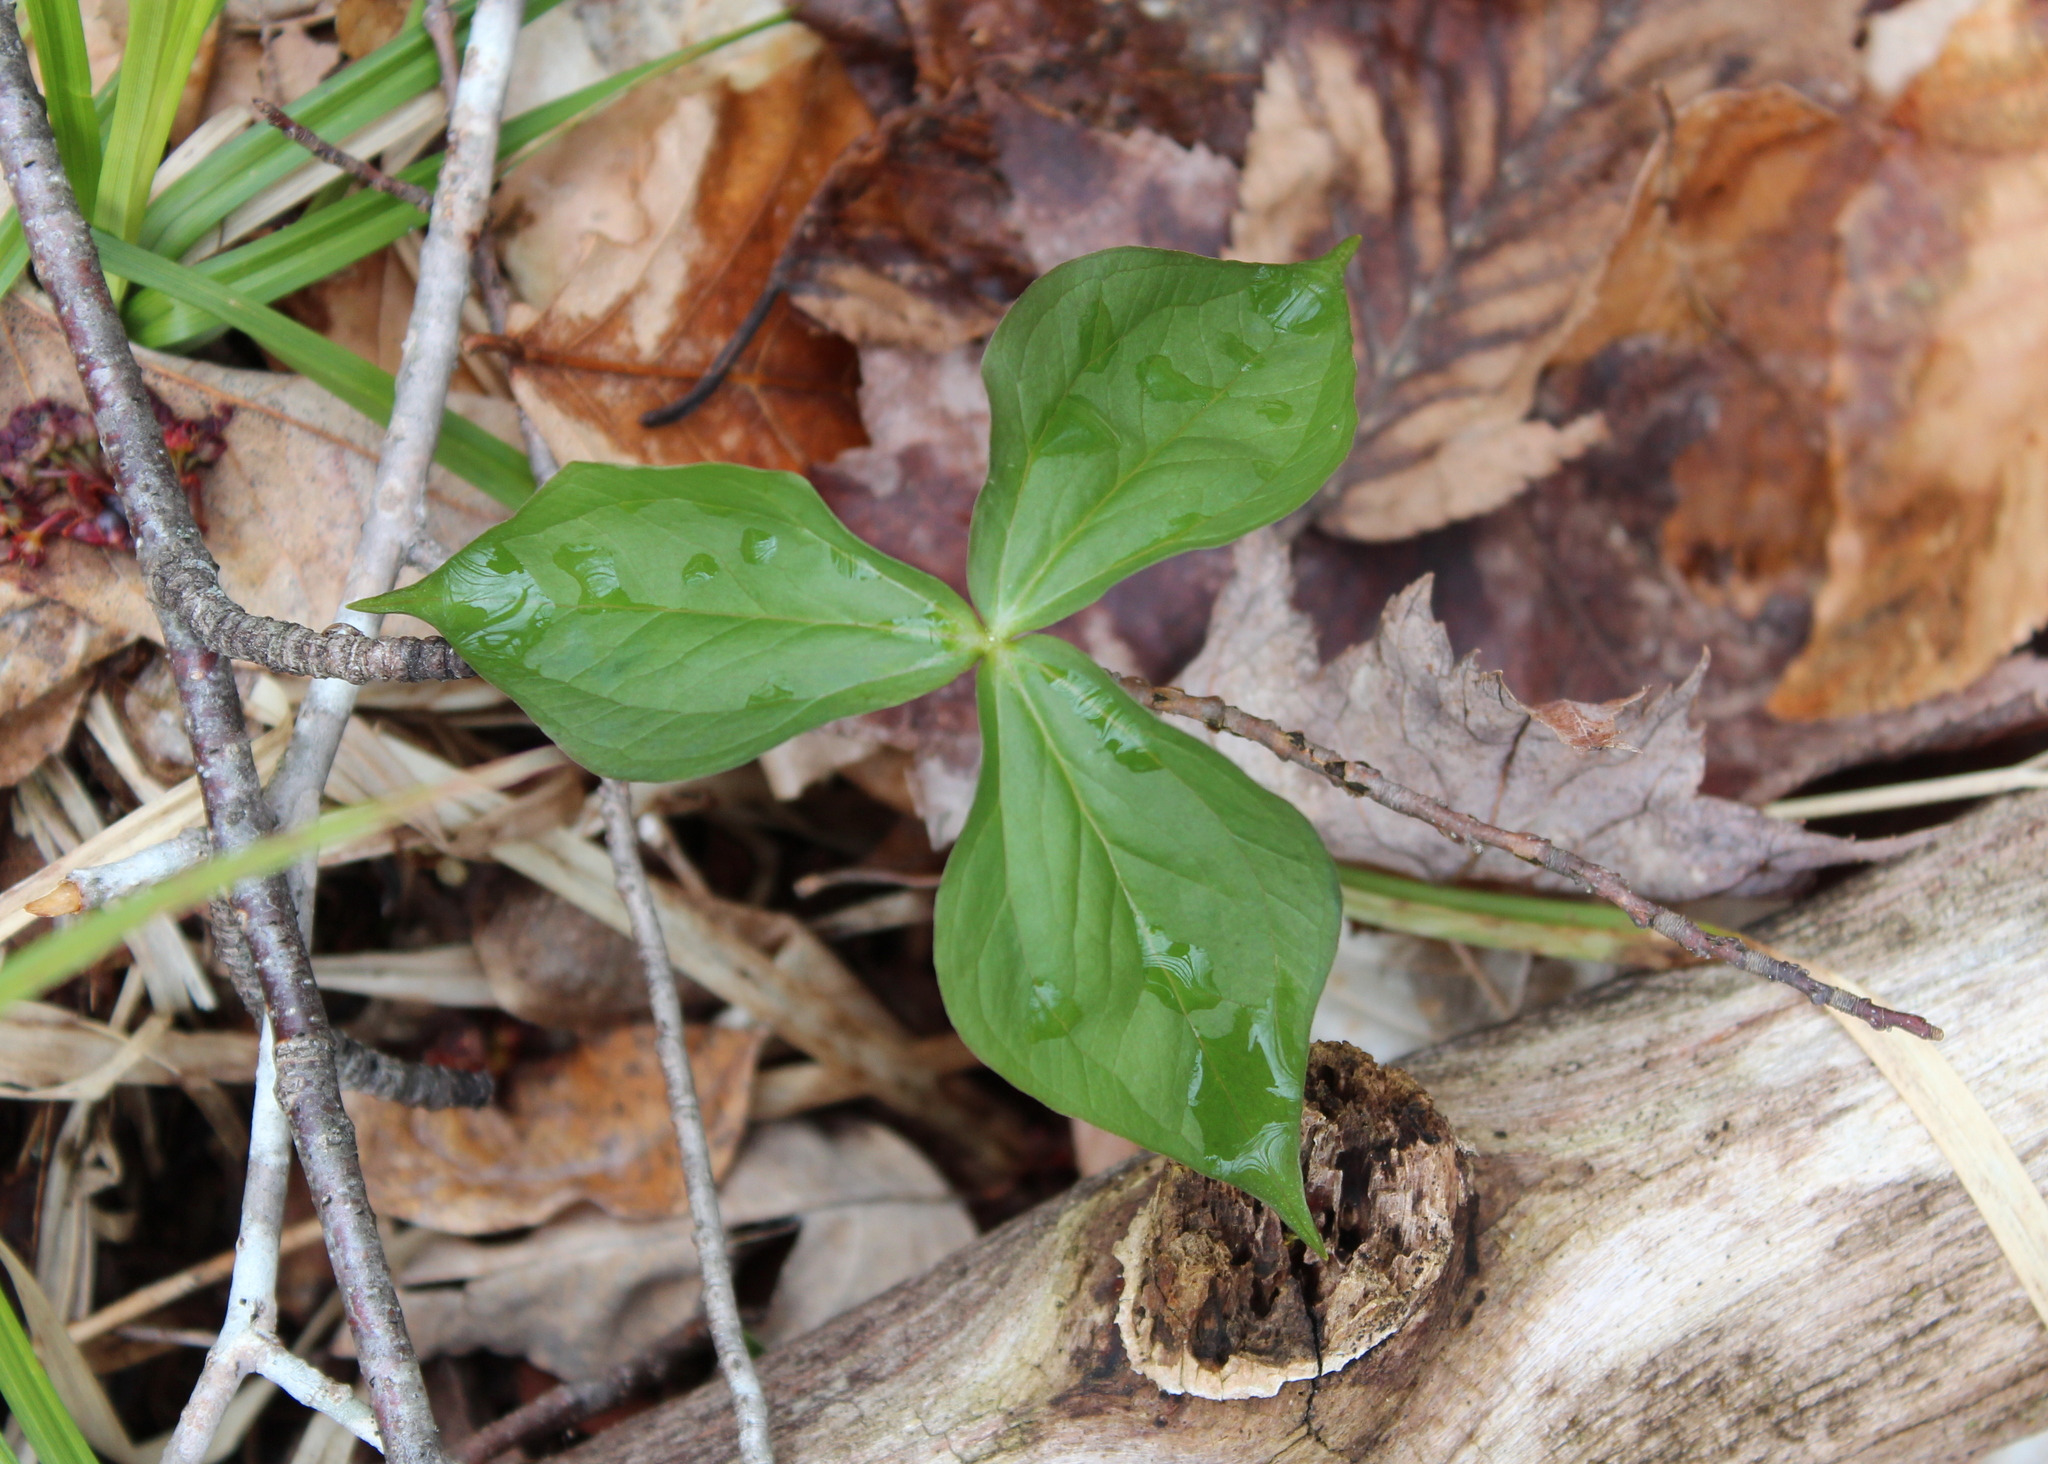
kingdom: Plantae
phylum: Tracheophyta
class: Liliopsida
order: Liliales
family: Melanthiaceae
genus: Trillium
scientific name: Trillium erectum
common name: Purple trillium
